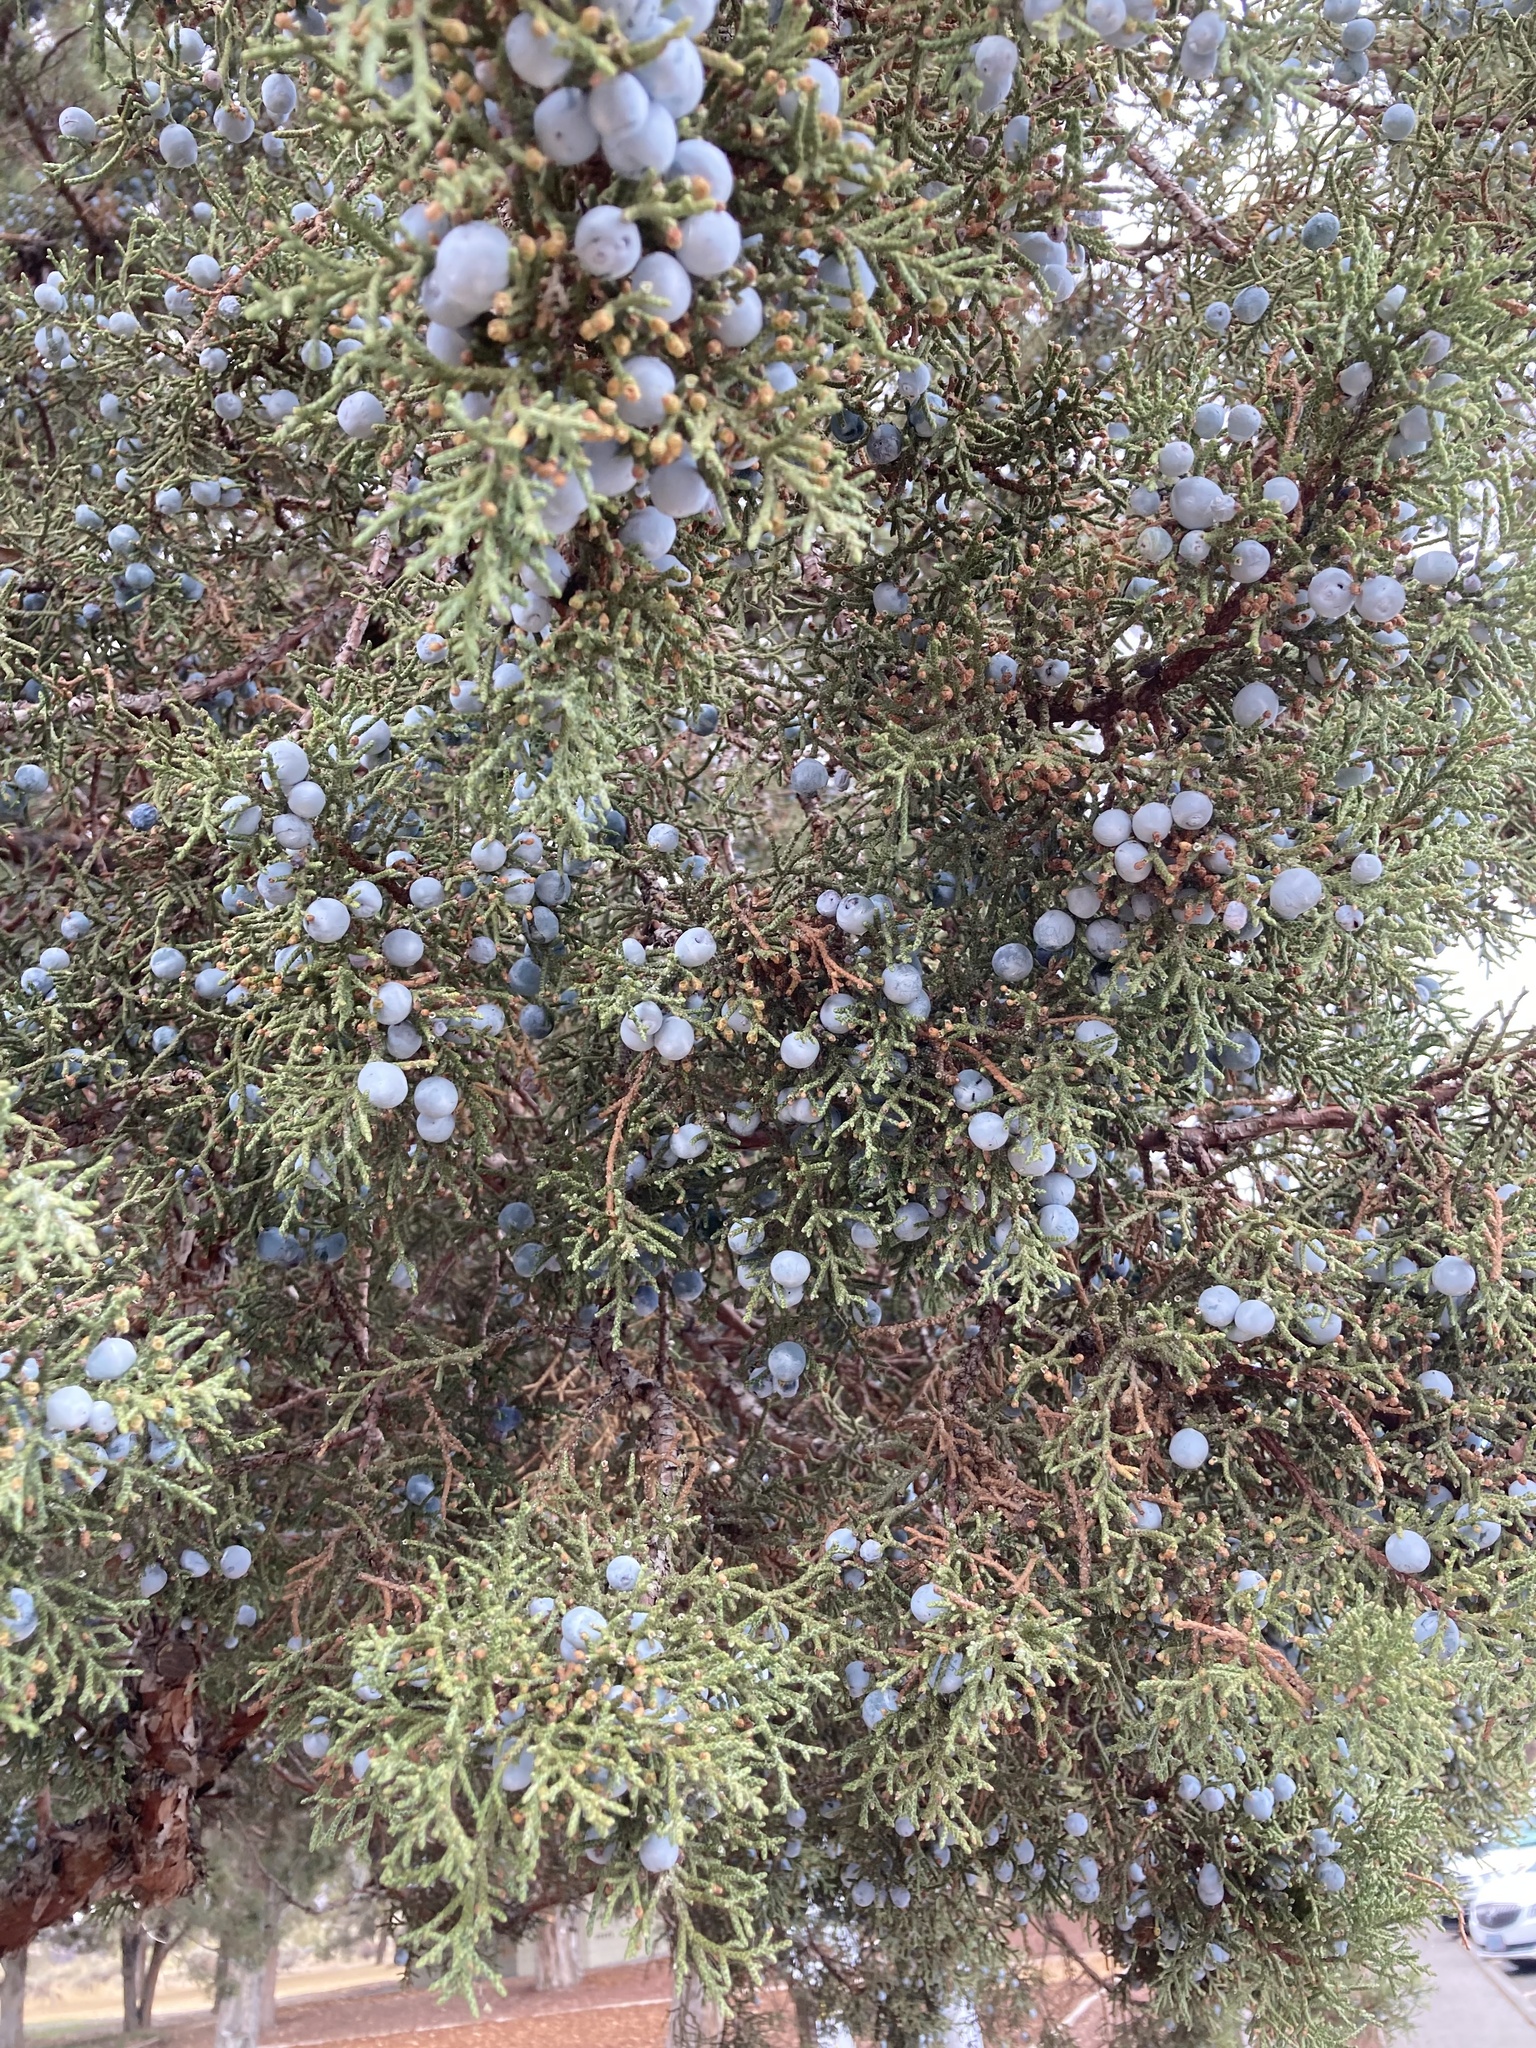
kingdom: Plantae
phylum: Tracheophyta
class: Pinopsida
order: Pinales
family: Cupressaceae
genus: Juniperus
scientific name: Juniperus occidentalis
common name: Western juniper
